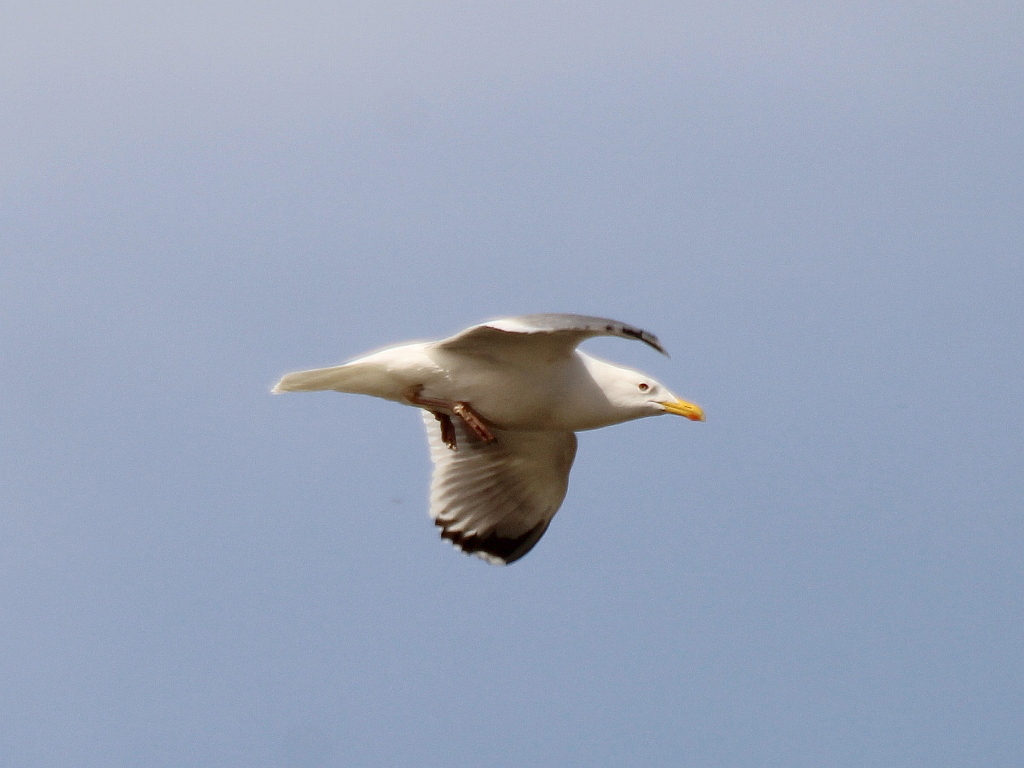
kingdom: Animalia
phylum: Chordata
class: Aves
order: Charadriiformes
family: Laridae
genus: Larus
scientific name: Larus vegae
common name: Vega gull
